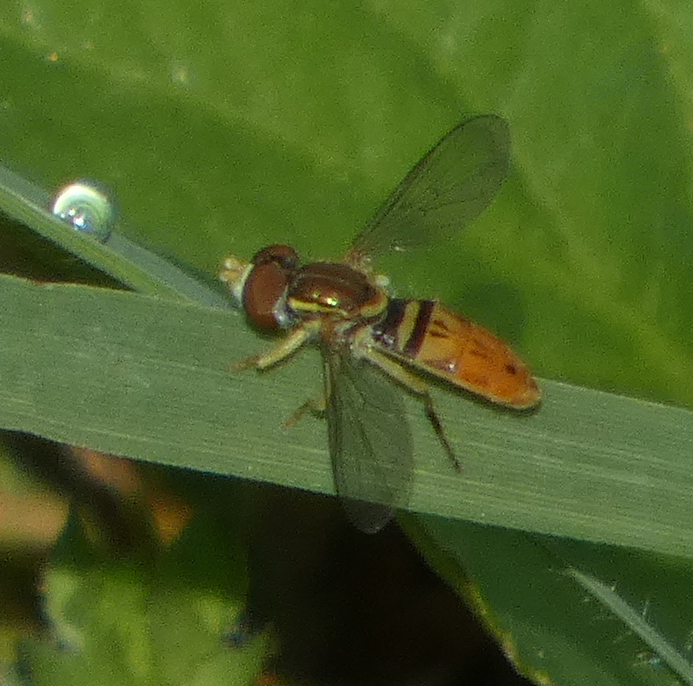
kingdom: Animalia
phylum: Arthropoda
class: Insecta
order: Diptera
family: Syrphidae
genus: Toxomerus
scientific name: Toxomerus marginatus
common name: Syrphid fly
